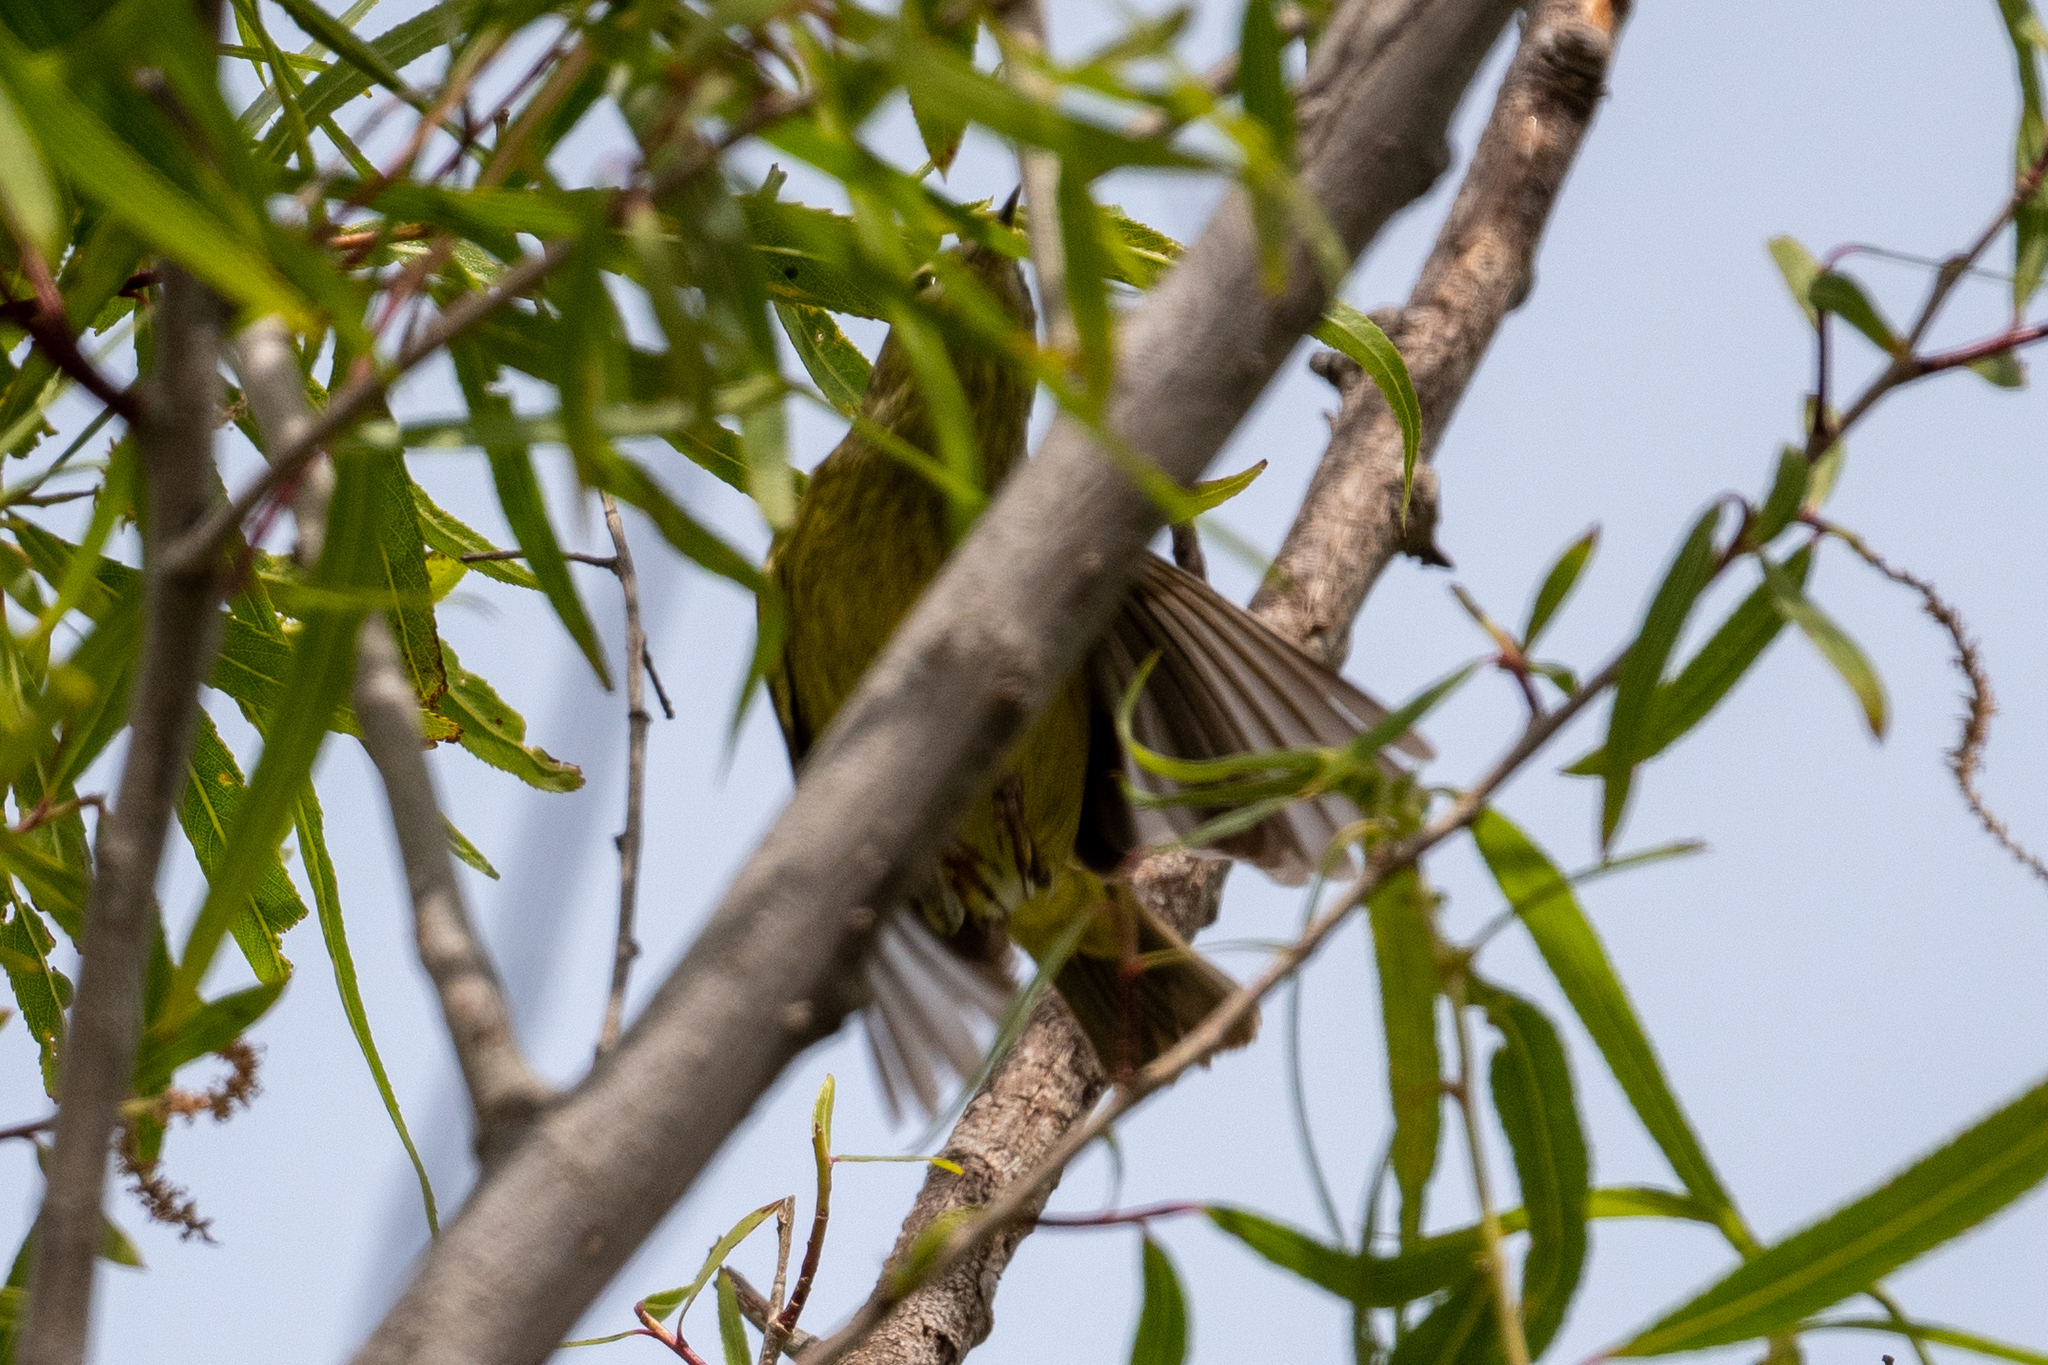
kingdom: Animalia
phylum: Chordata
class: Aves
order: Passeriformes
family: Parulidae
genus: Leiothlypis
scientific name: Leiothlypis celata
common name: Orange-crowned warbler
